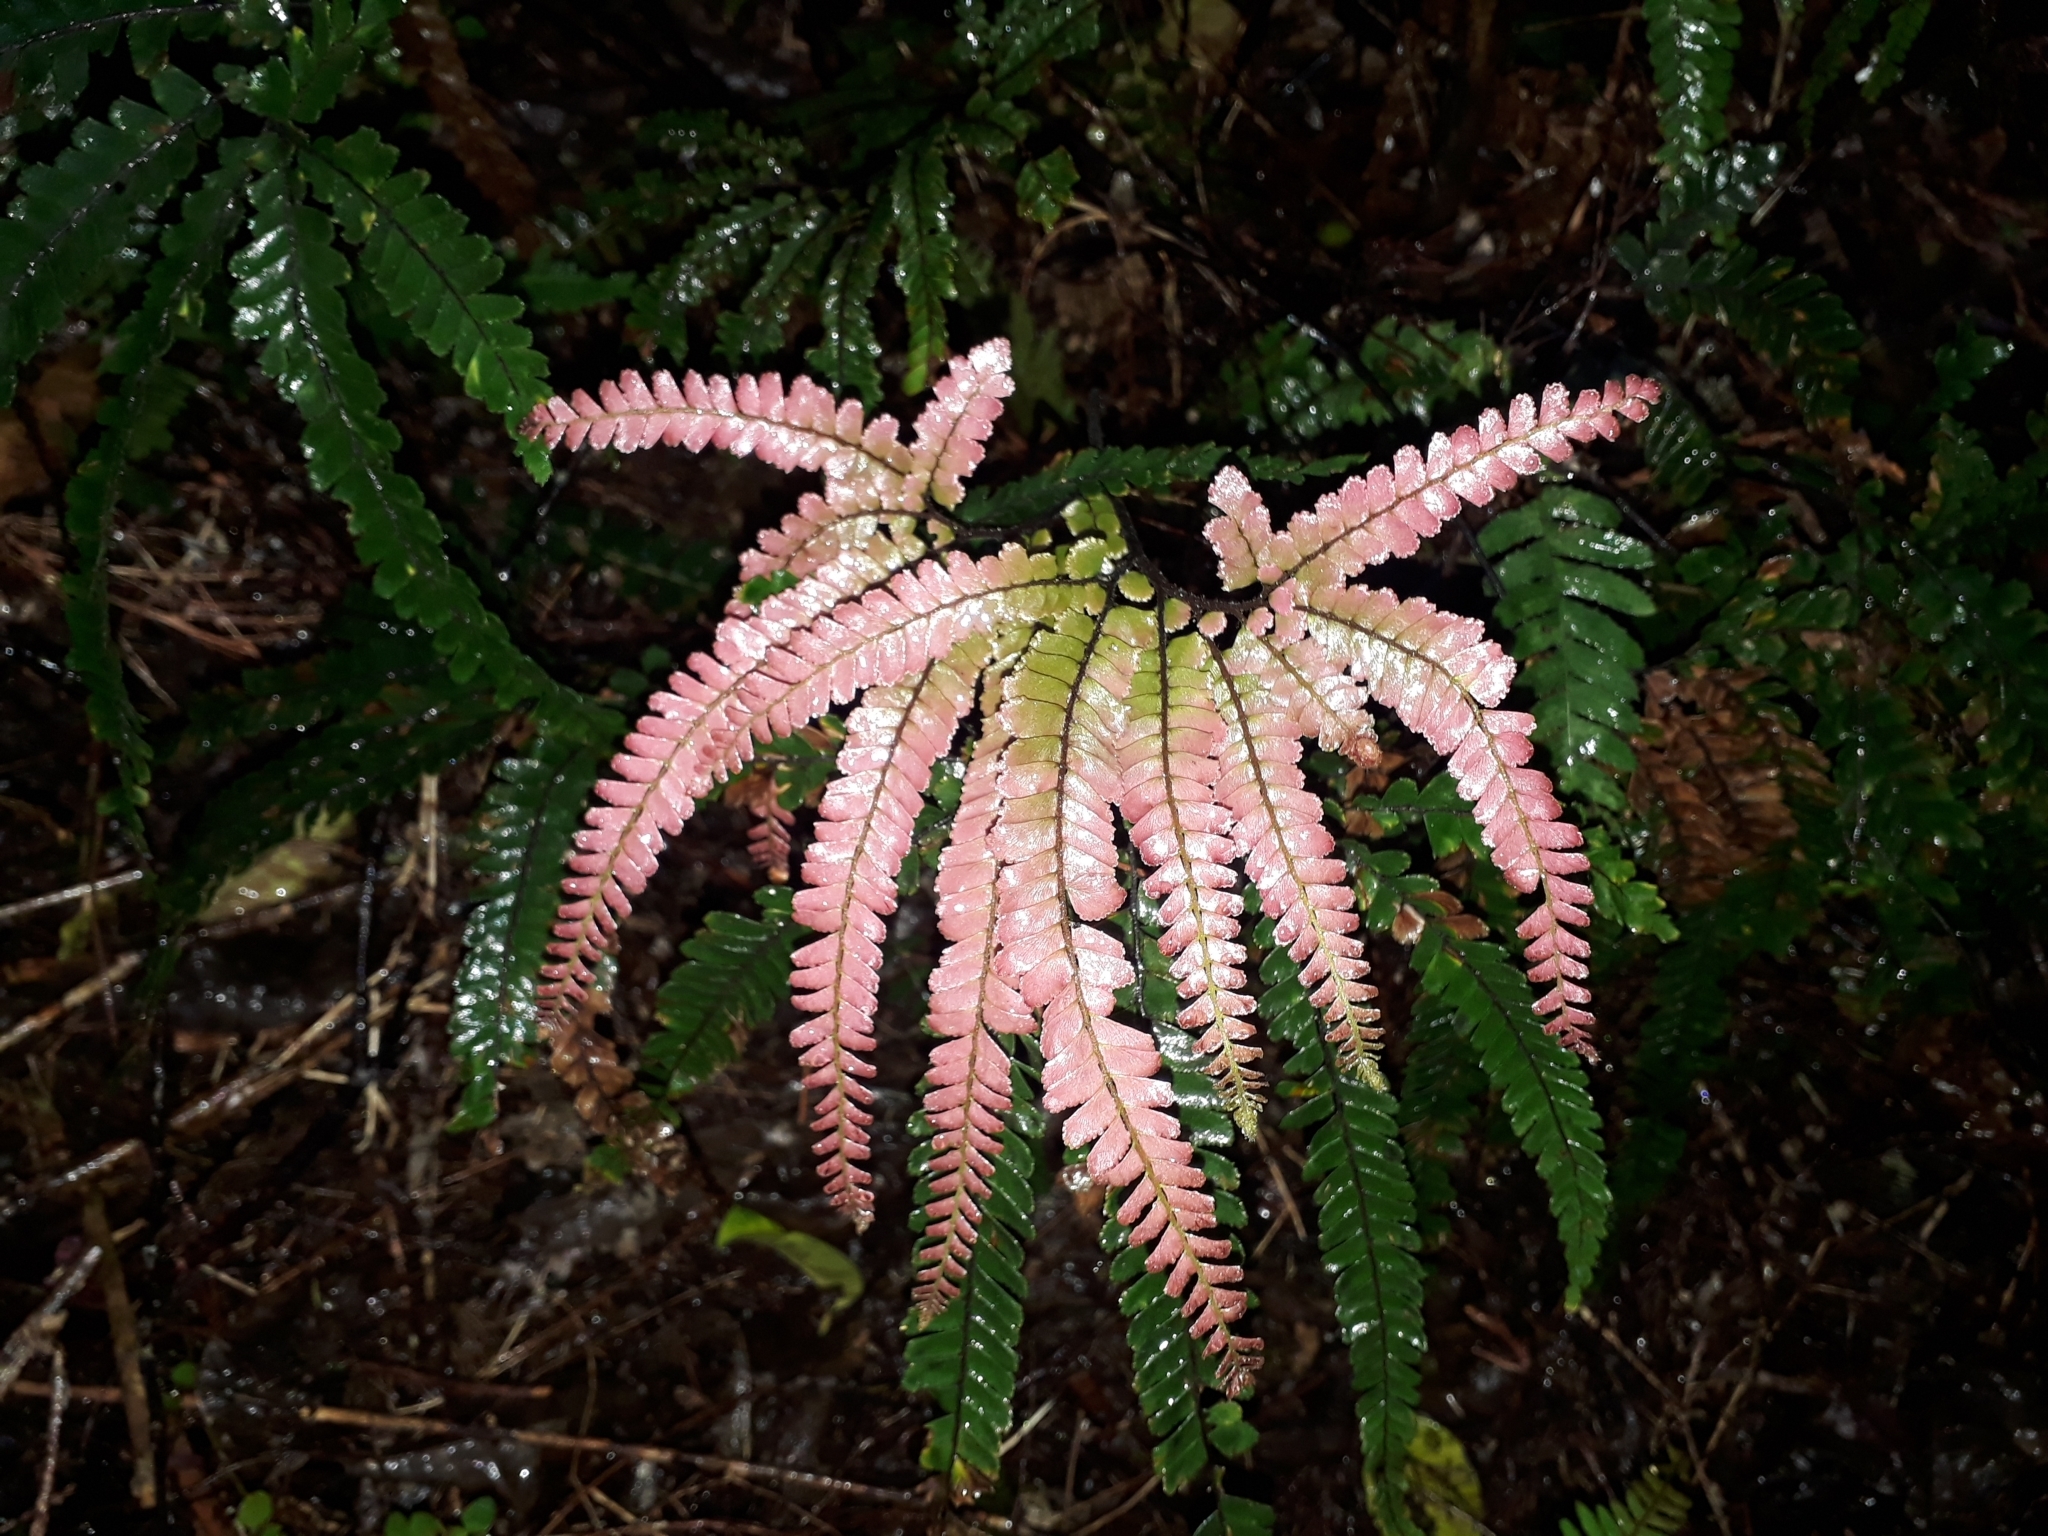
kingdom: Plantae
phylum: Tracheophyta
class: Polypodiopsida
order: Polypodiales
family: Pteridaceae
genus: Adiantum
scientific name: Adiantum hispidulum
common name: Rough maidenhair
